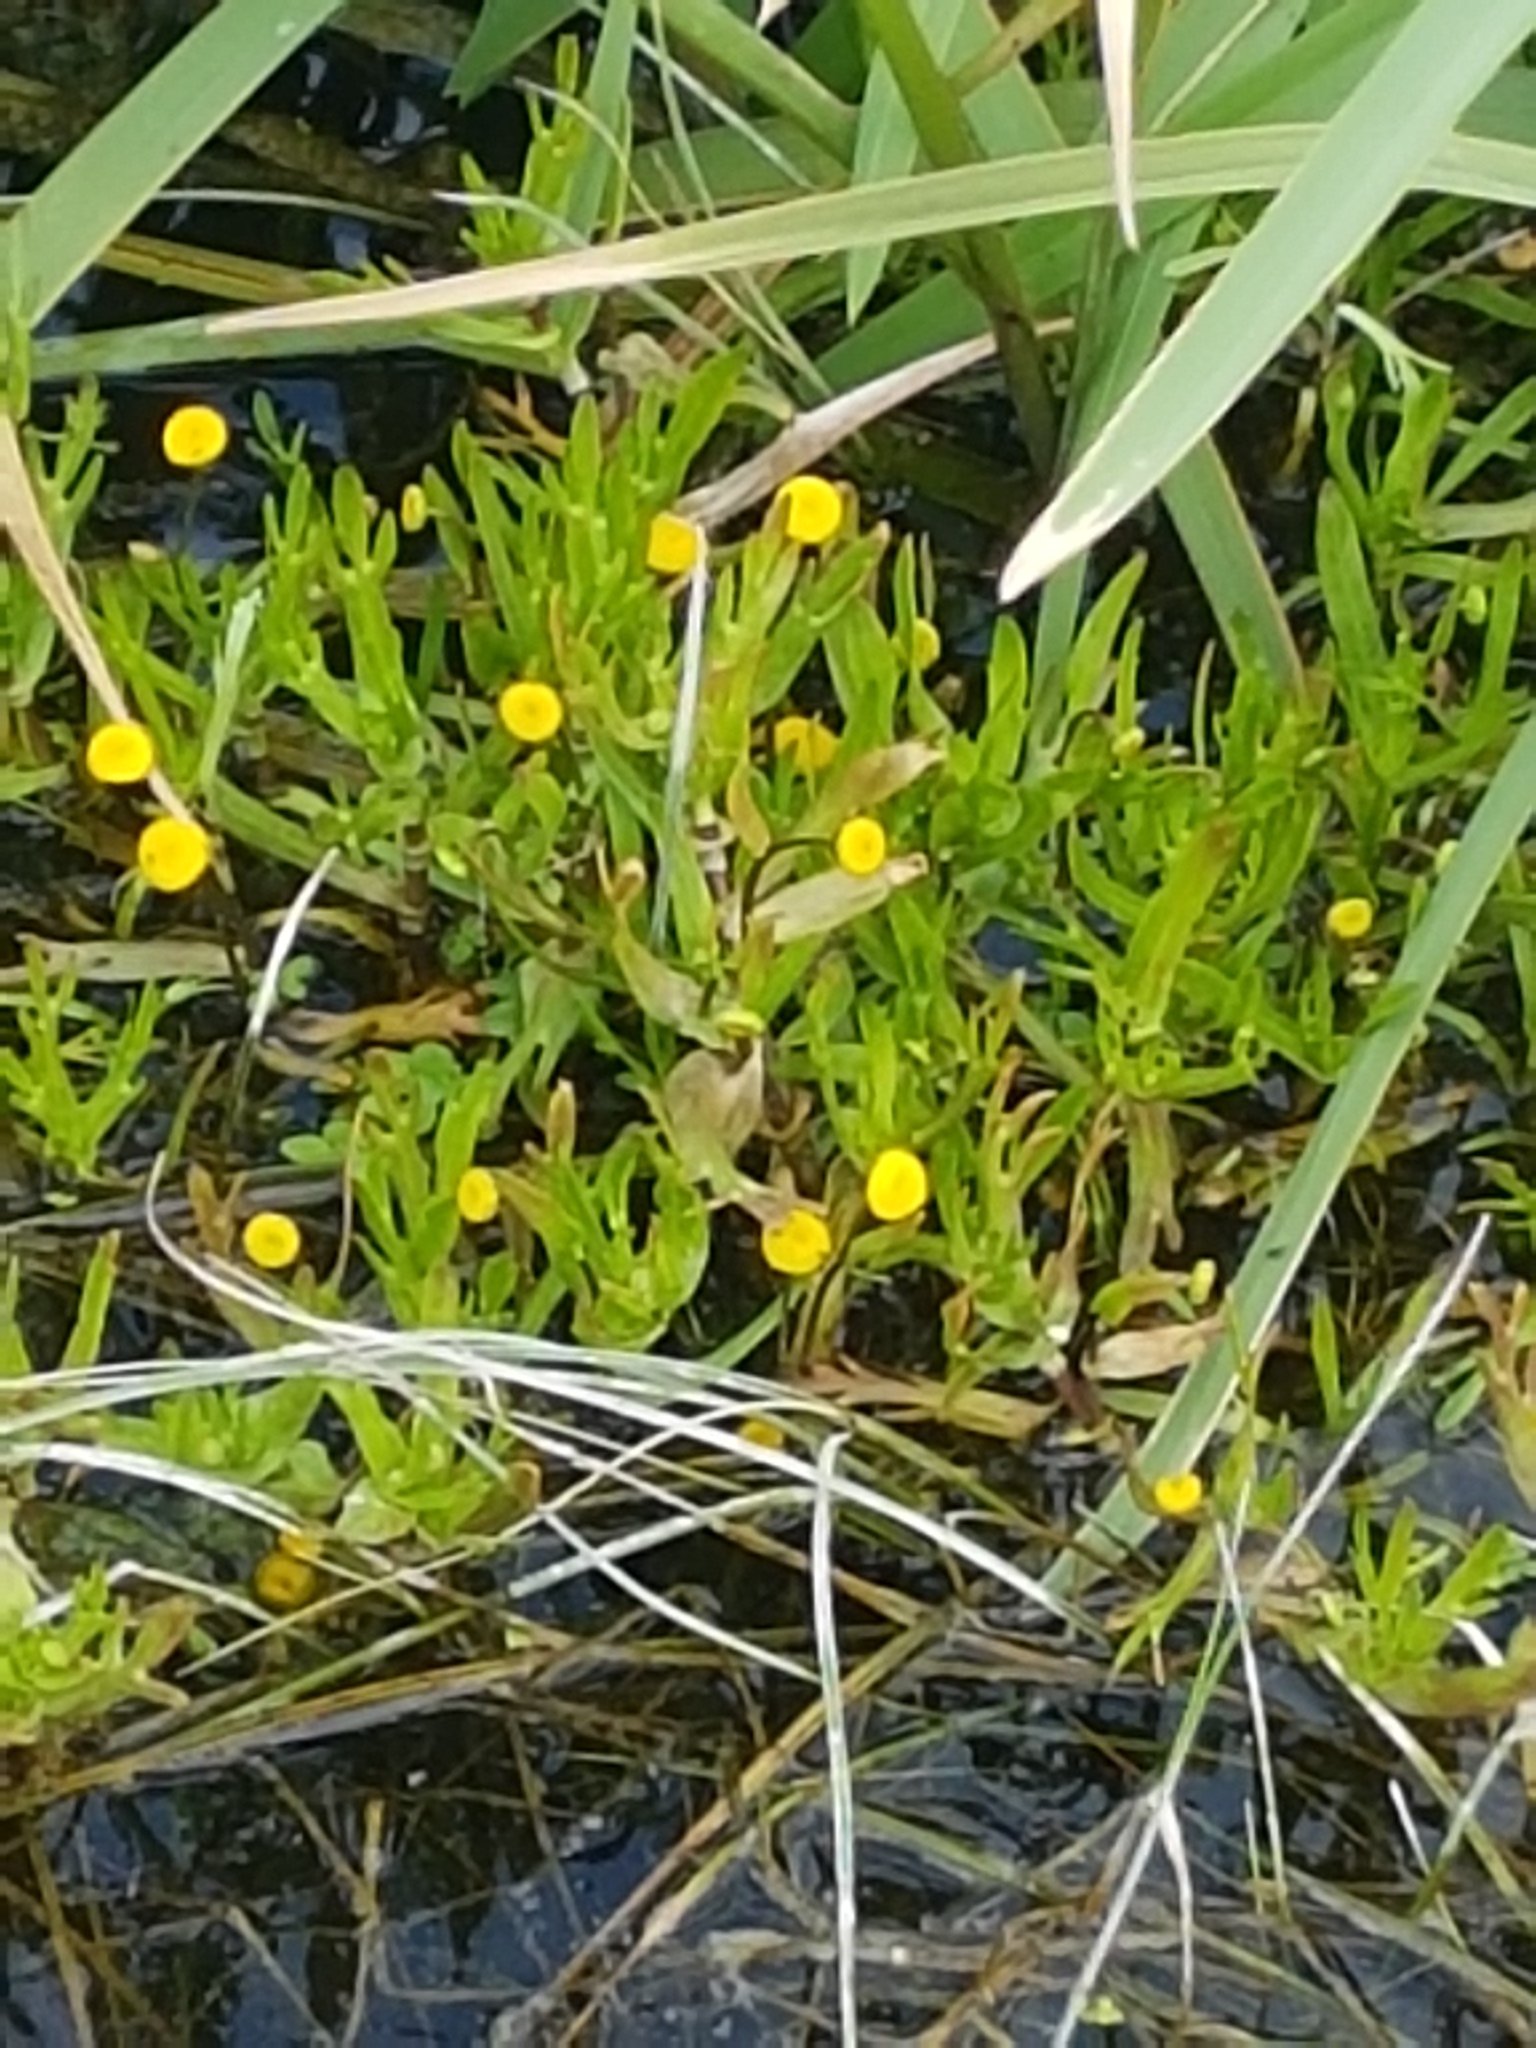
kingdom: Plantae
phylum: Tracheophyta
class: Magnoliopsida
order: Asterales
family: Asteraceae
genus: Cotula
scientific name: Cotula coronopifolia
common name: Buttonweed
